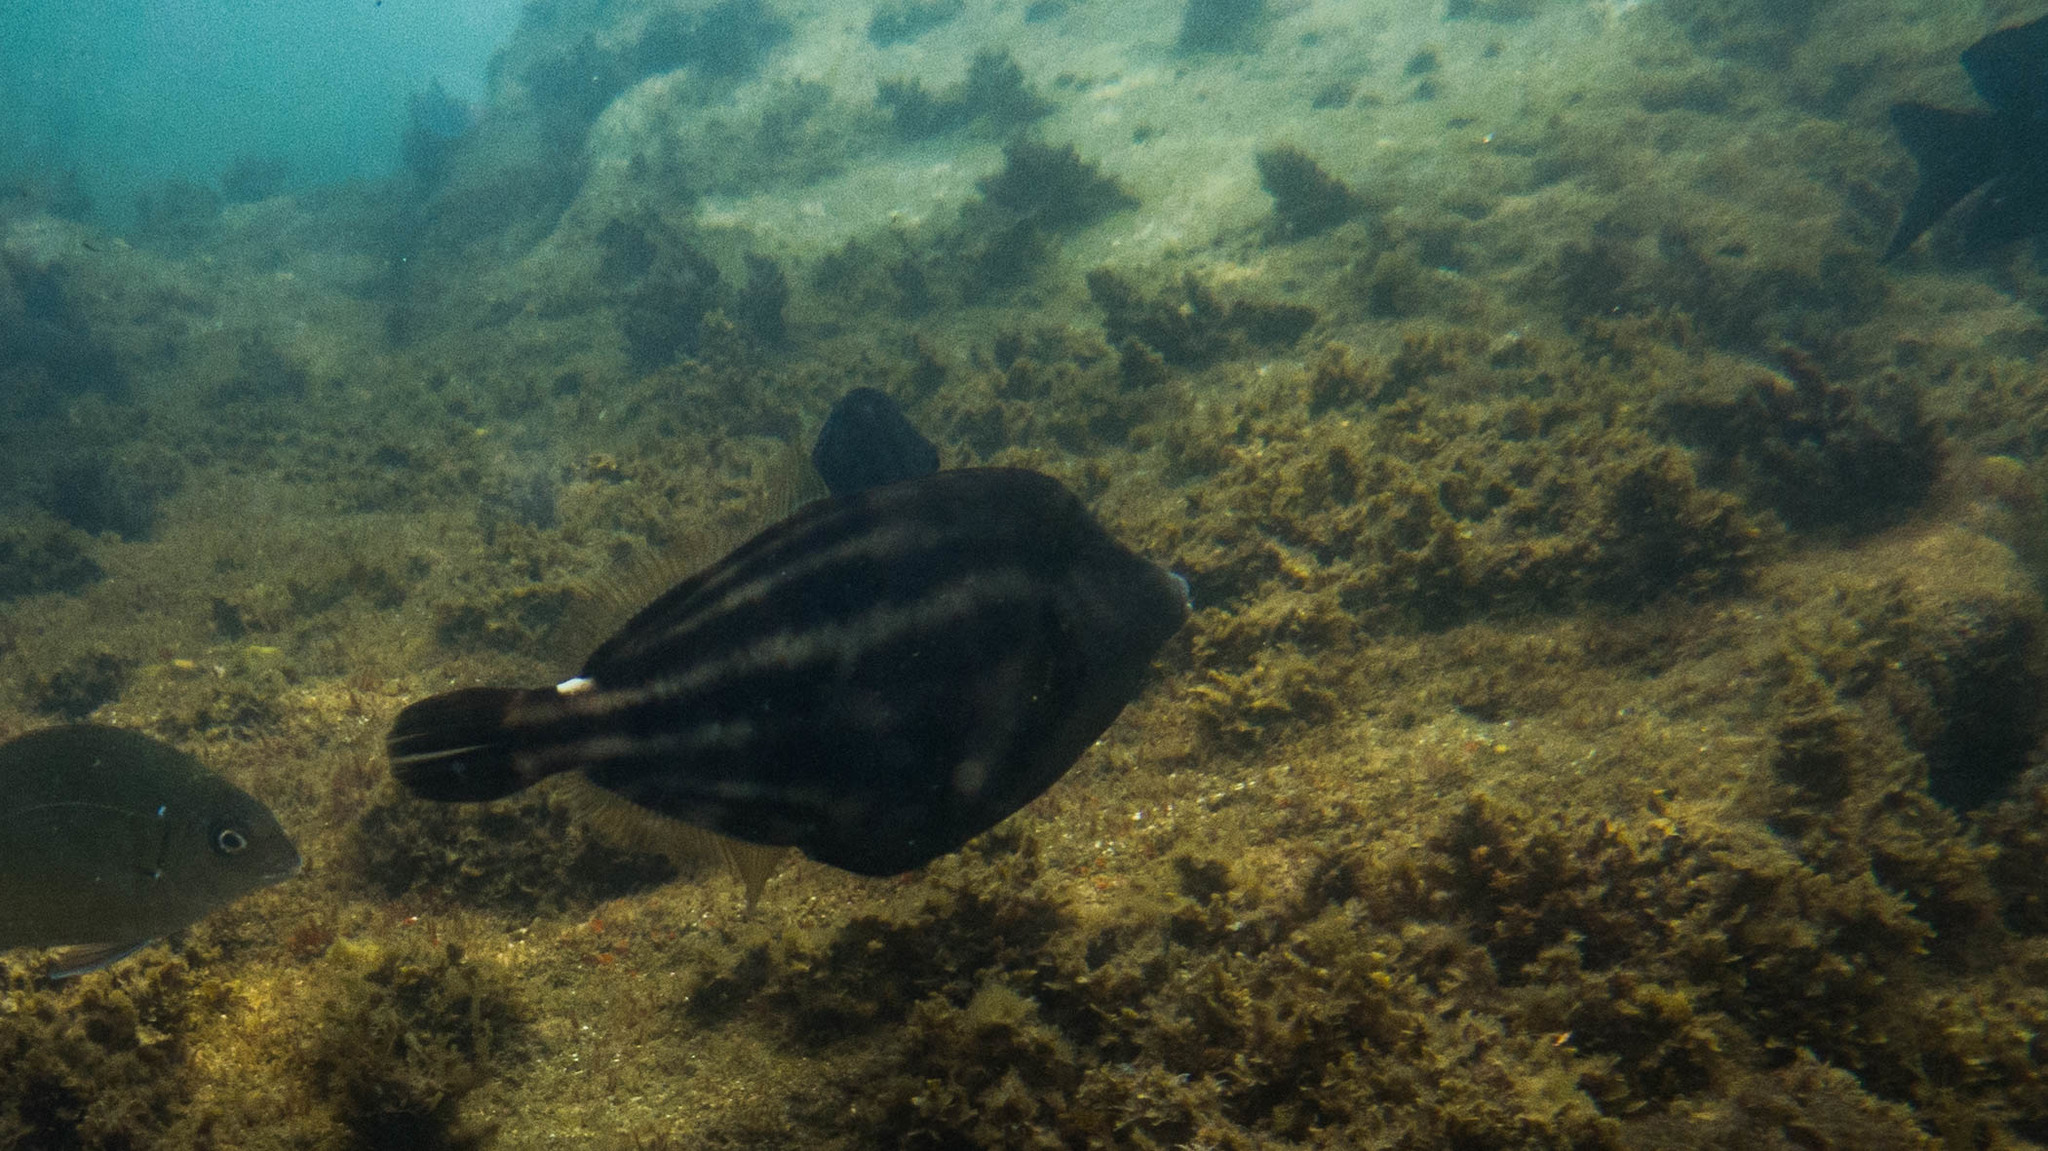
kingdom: Animalia
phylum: Chordata
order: Tetraodontiformes
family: Monacanthidae
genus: Cantherhines
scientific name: Cantherhines pullus
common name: Orangespotted filefish
